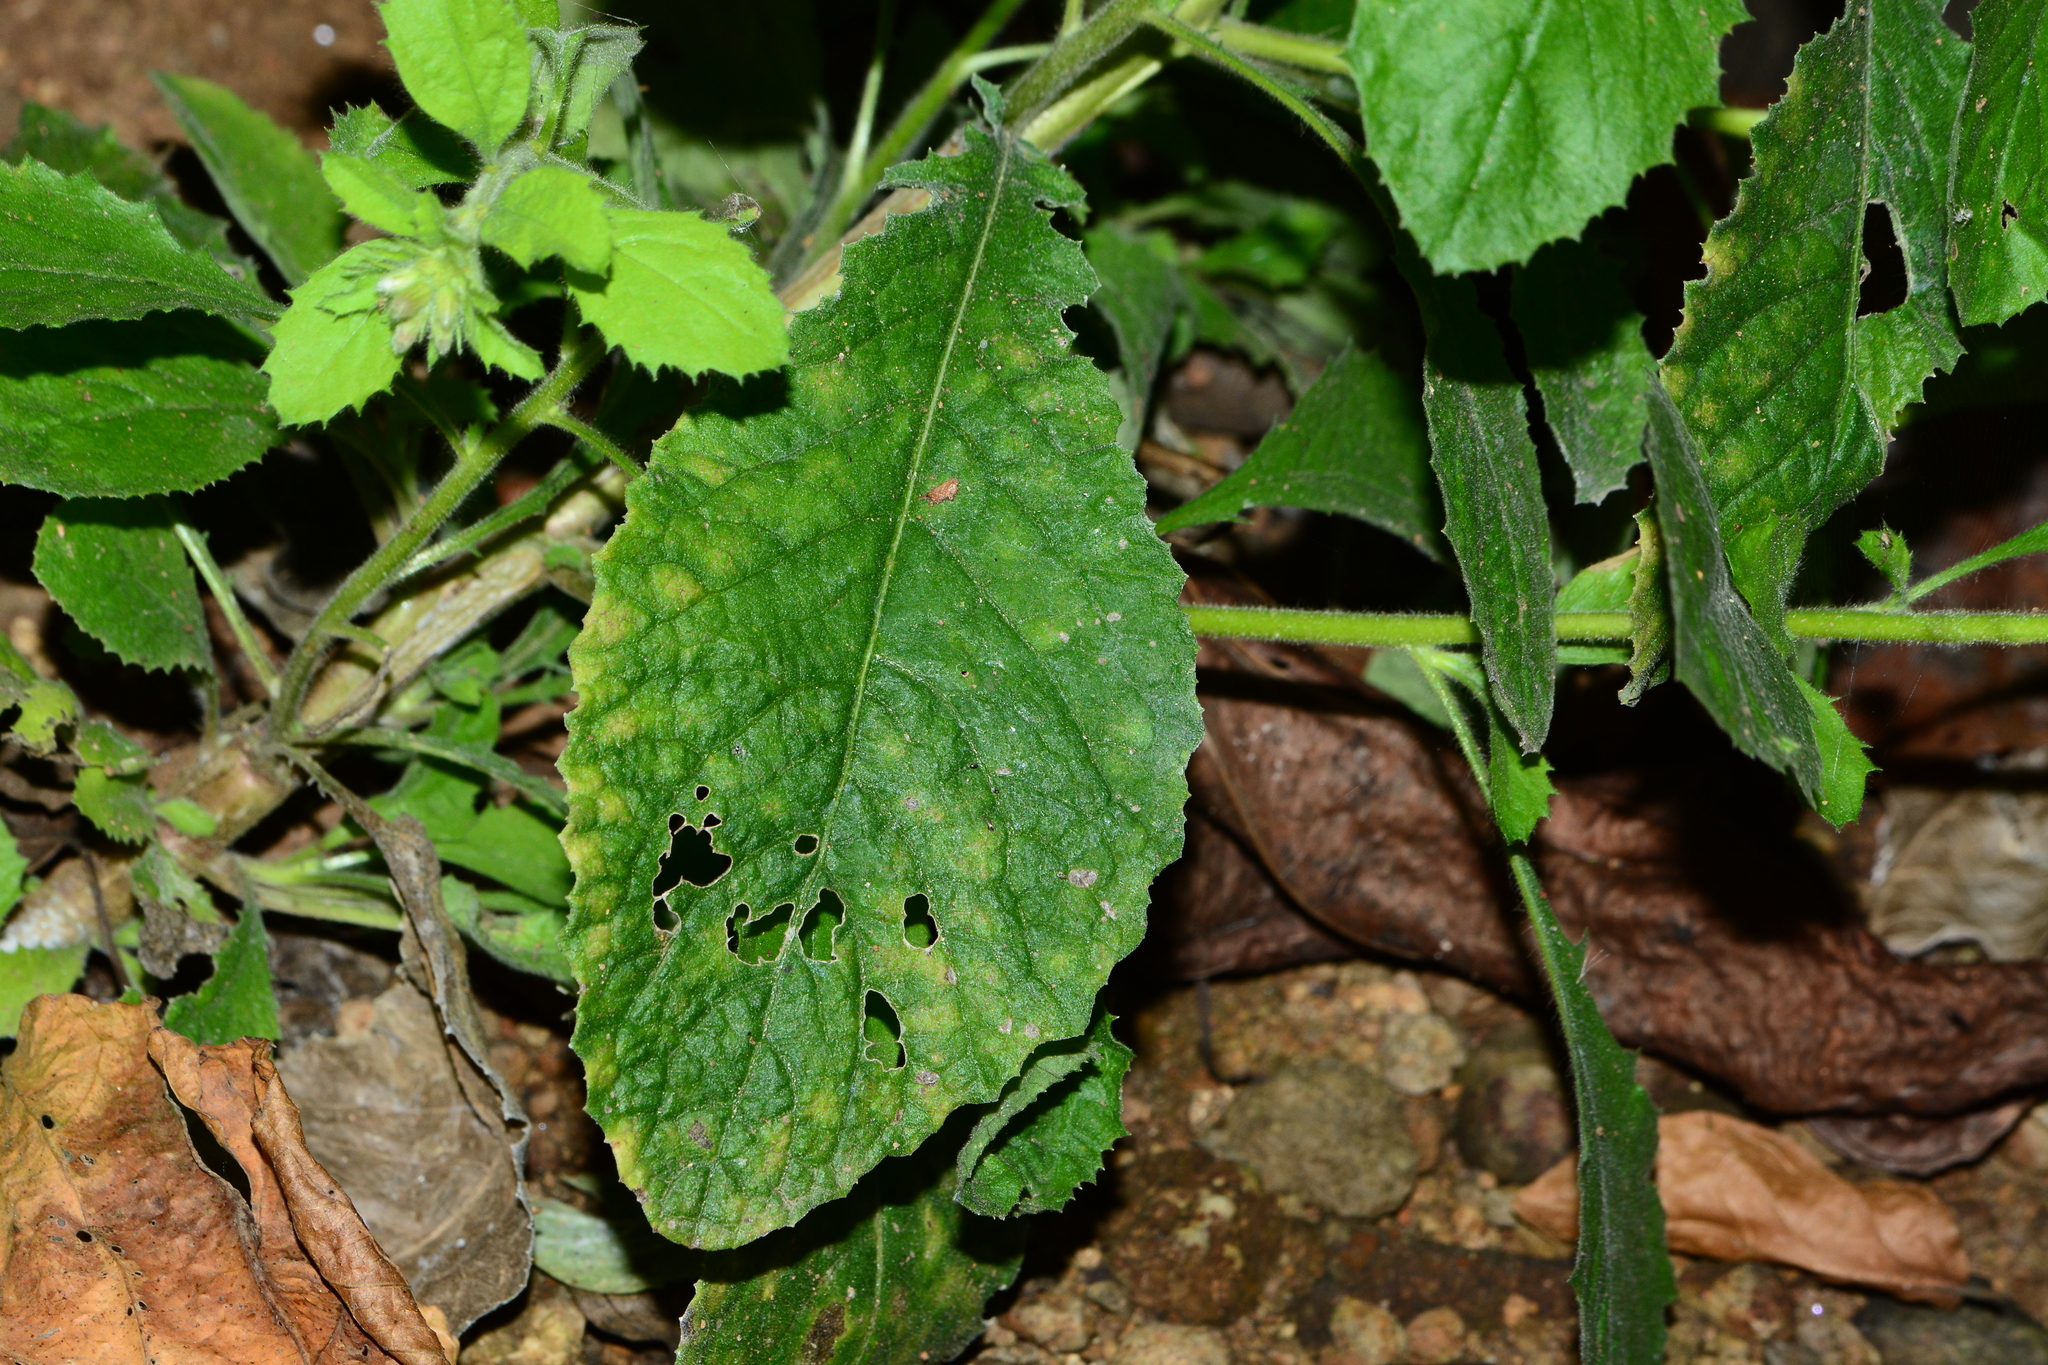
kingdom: Plantae
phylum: Tracheophyta
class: Magnoliopsida
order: Asterales
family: Asteraceae
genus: Blumea
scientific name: Blumea axillaris
